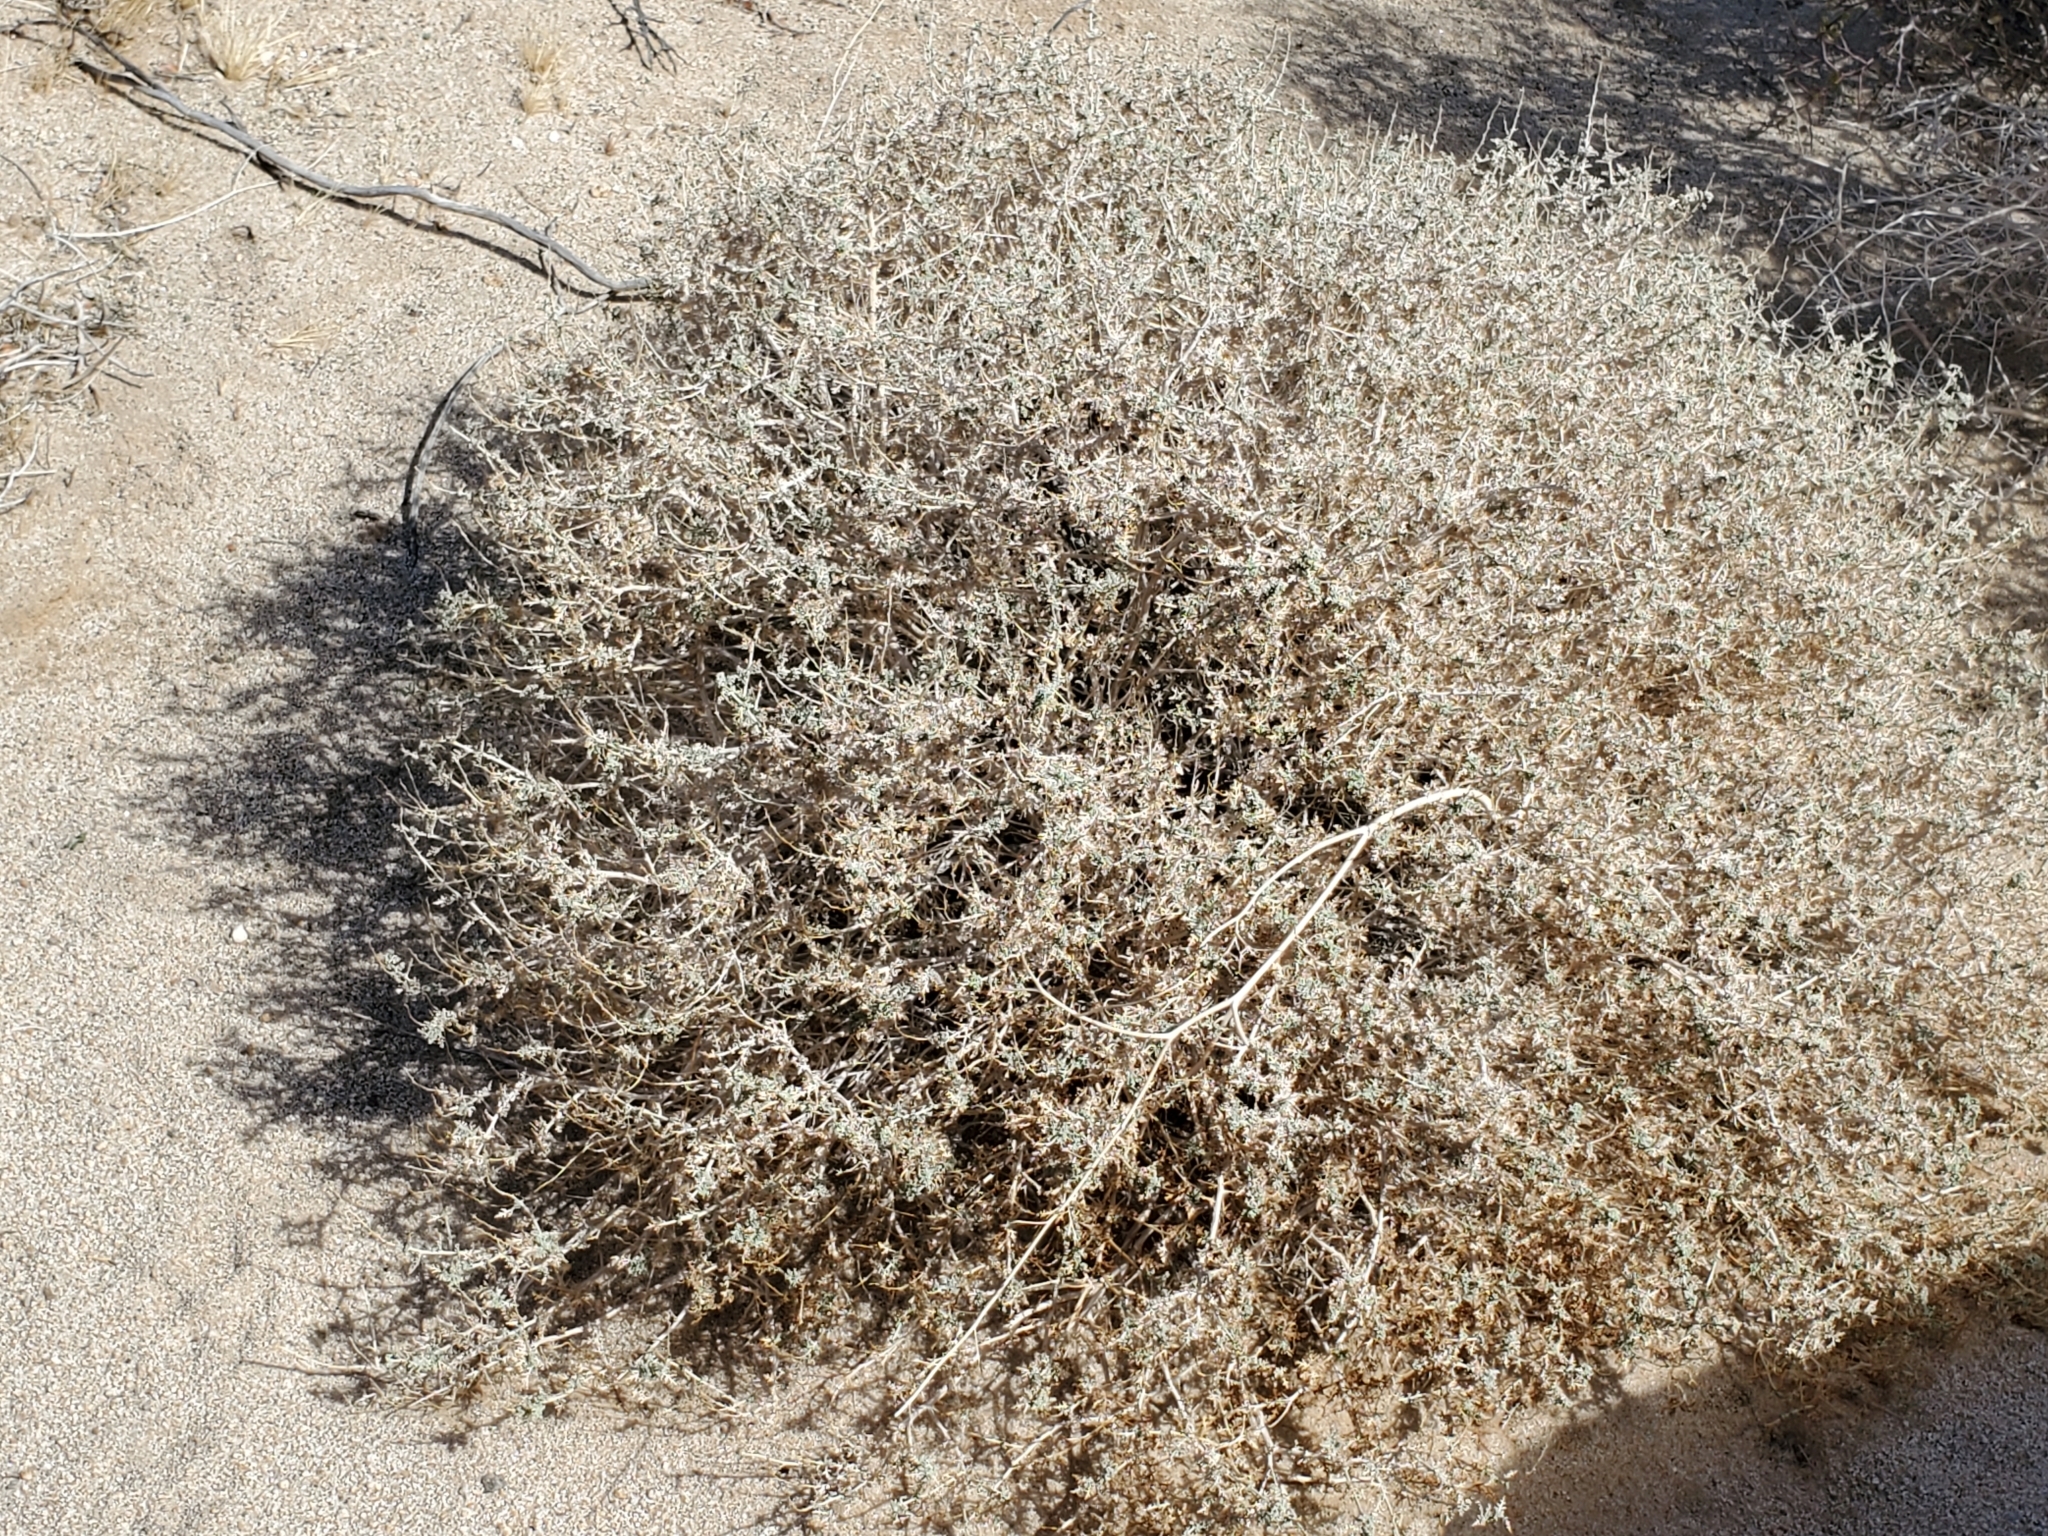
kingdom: Plantae
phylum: Tracheophyta
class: Magnoliopsida
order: Asterales
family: Asteraceae
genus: Ambrosia
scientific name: Ambrosia dumosa
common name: Bur-sage
